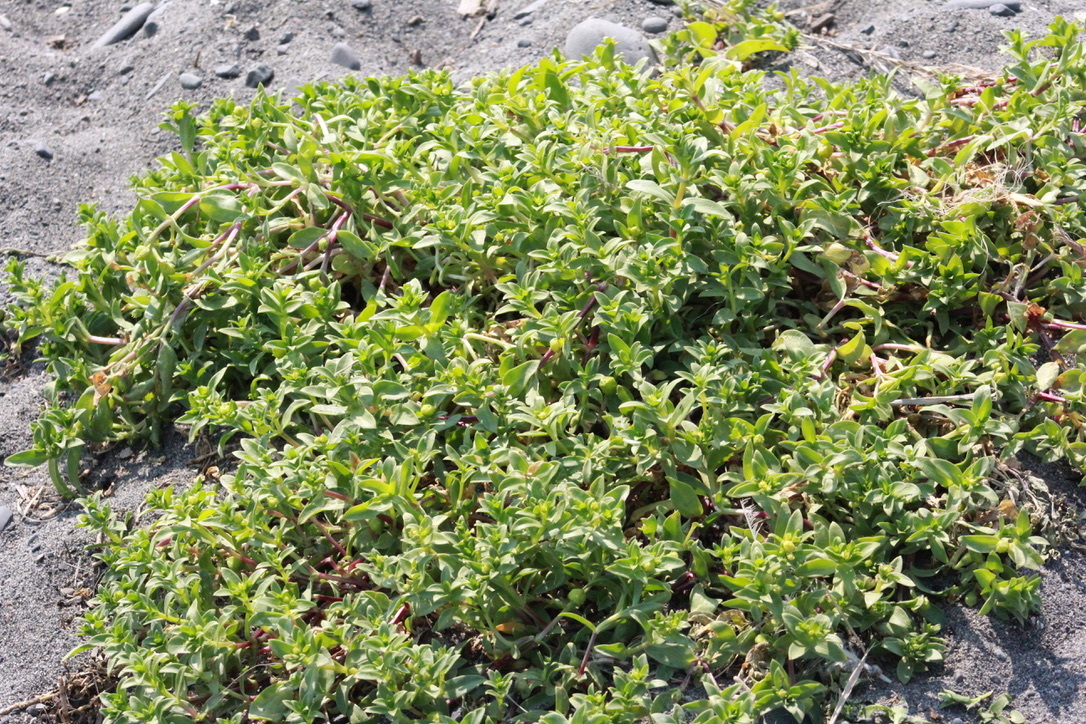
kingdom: Plantae
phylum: Tracheophyta
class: Magnoliopsida
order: Caryophyllales
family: Caryophyllaceae
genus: Honckenya
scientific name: Honckenya peploides
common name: Sea sandwort
